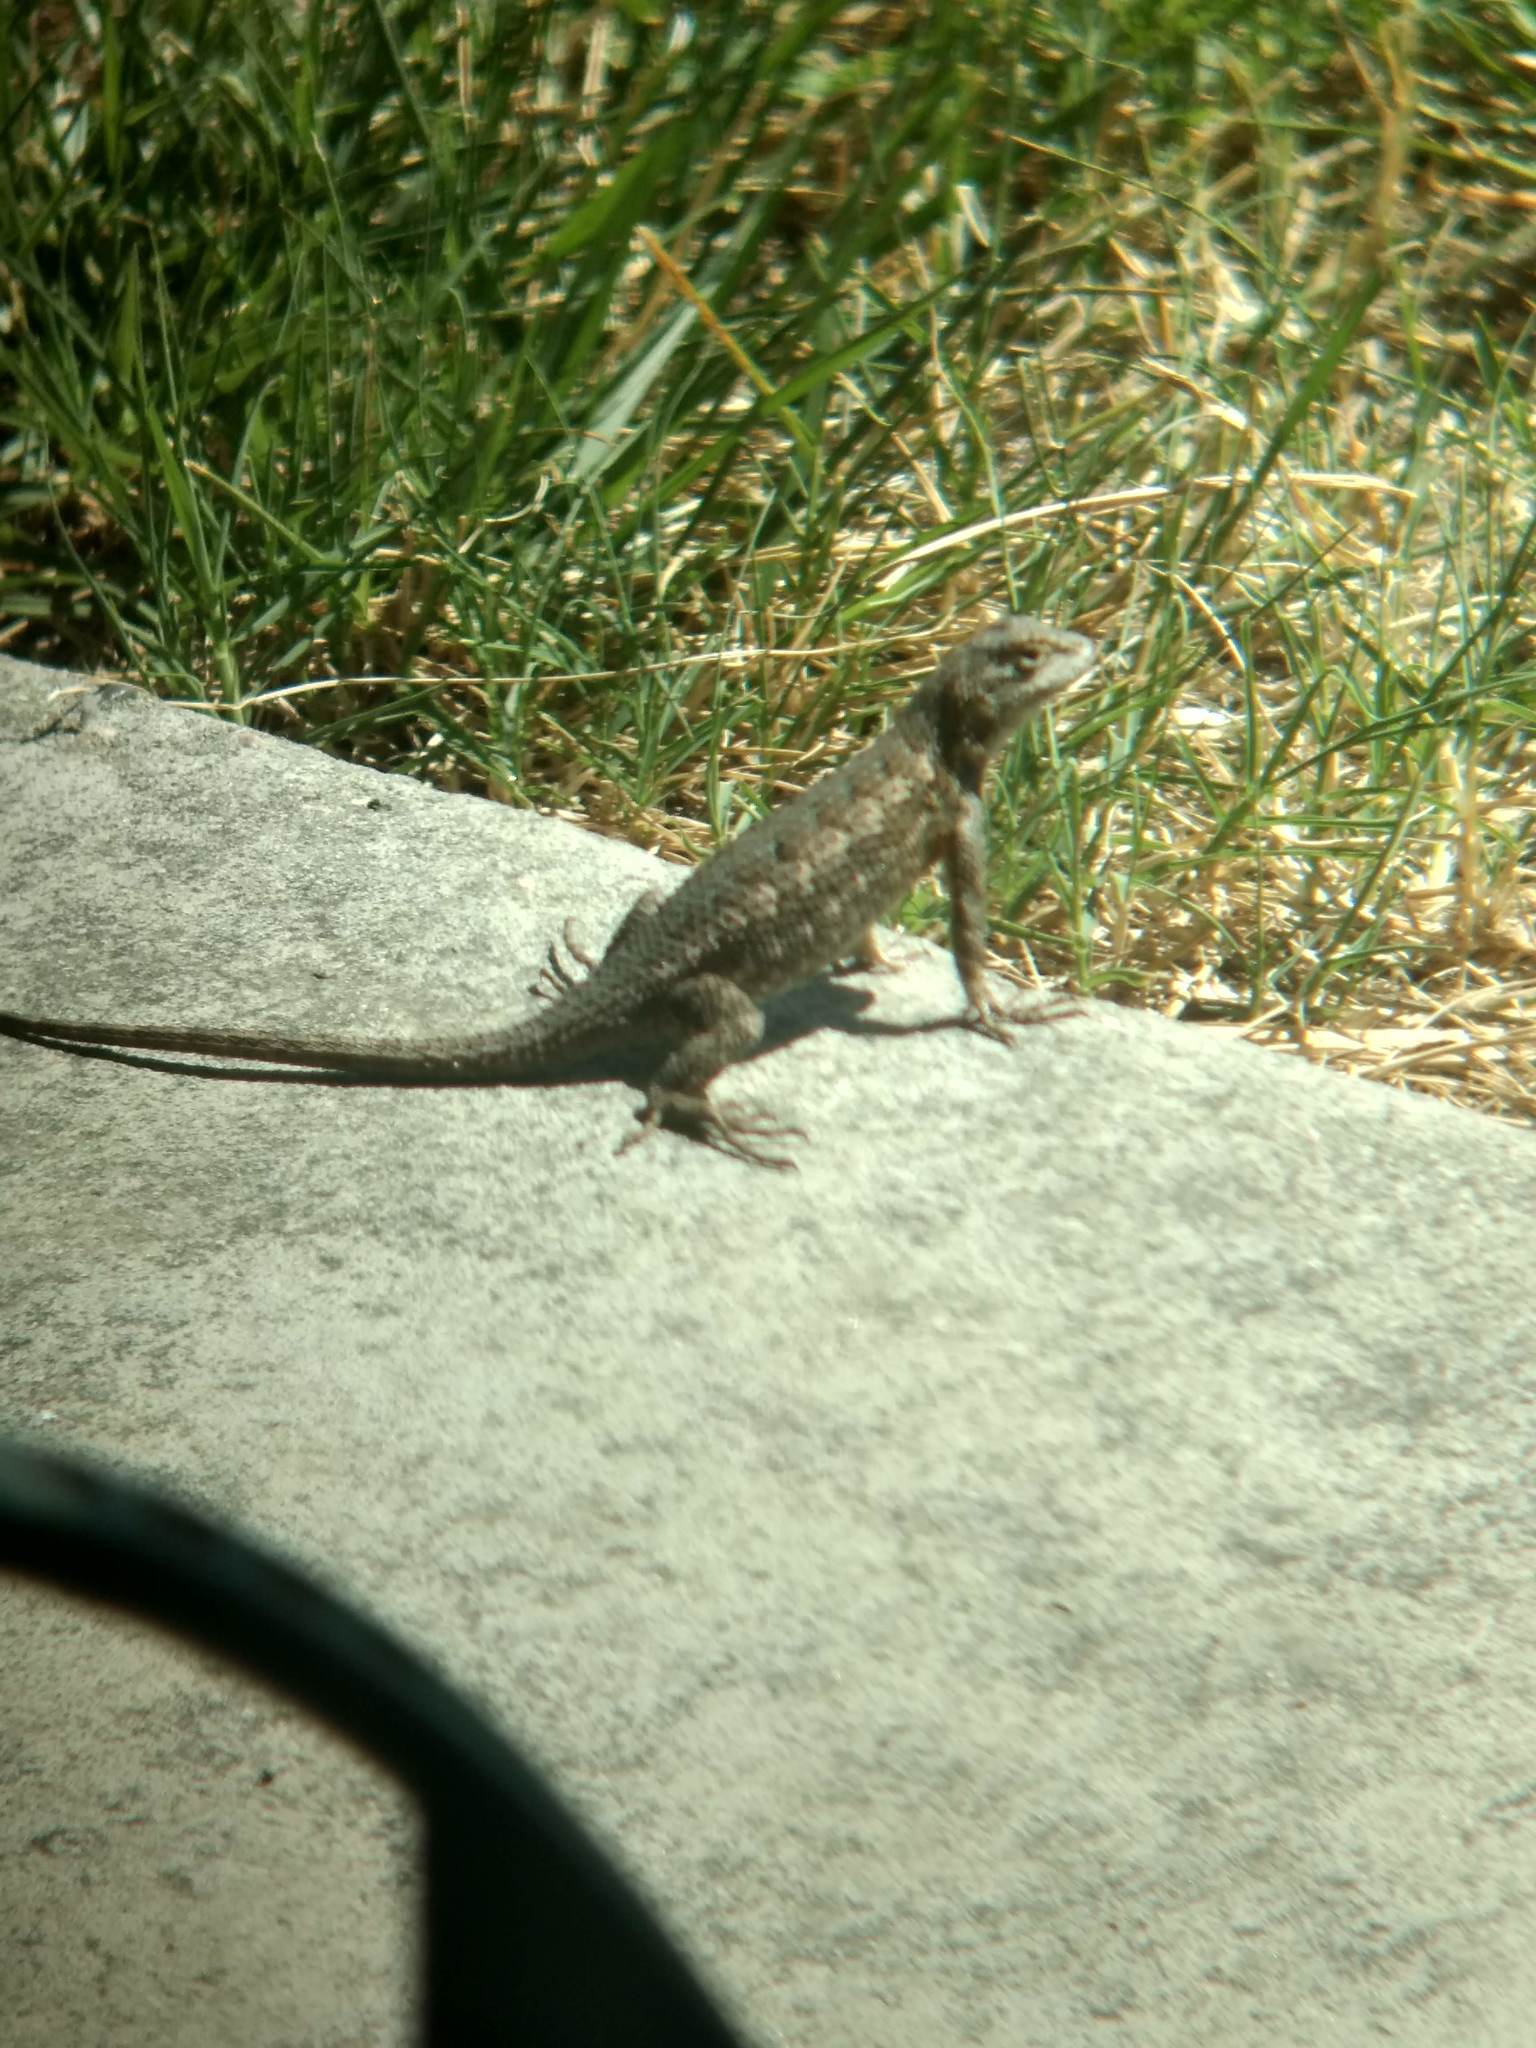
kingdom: Animalia
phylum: Chordata
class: Squamata
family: Phrynosomatidae
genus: Sceloporus
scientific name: Sceloporus occidentalis
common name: Western fence lizard
